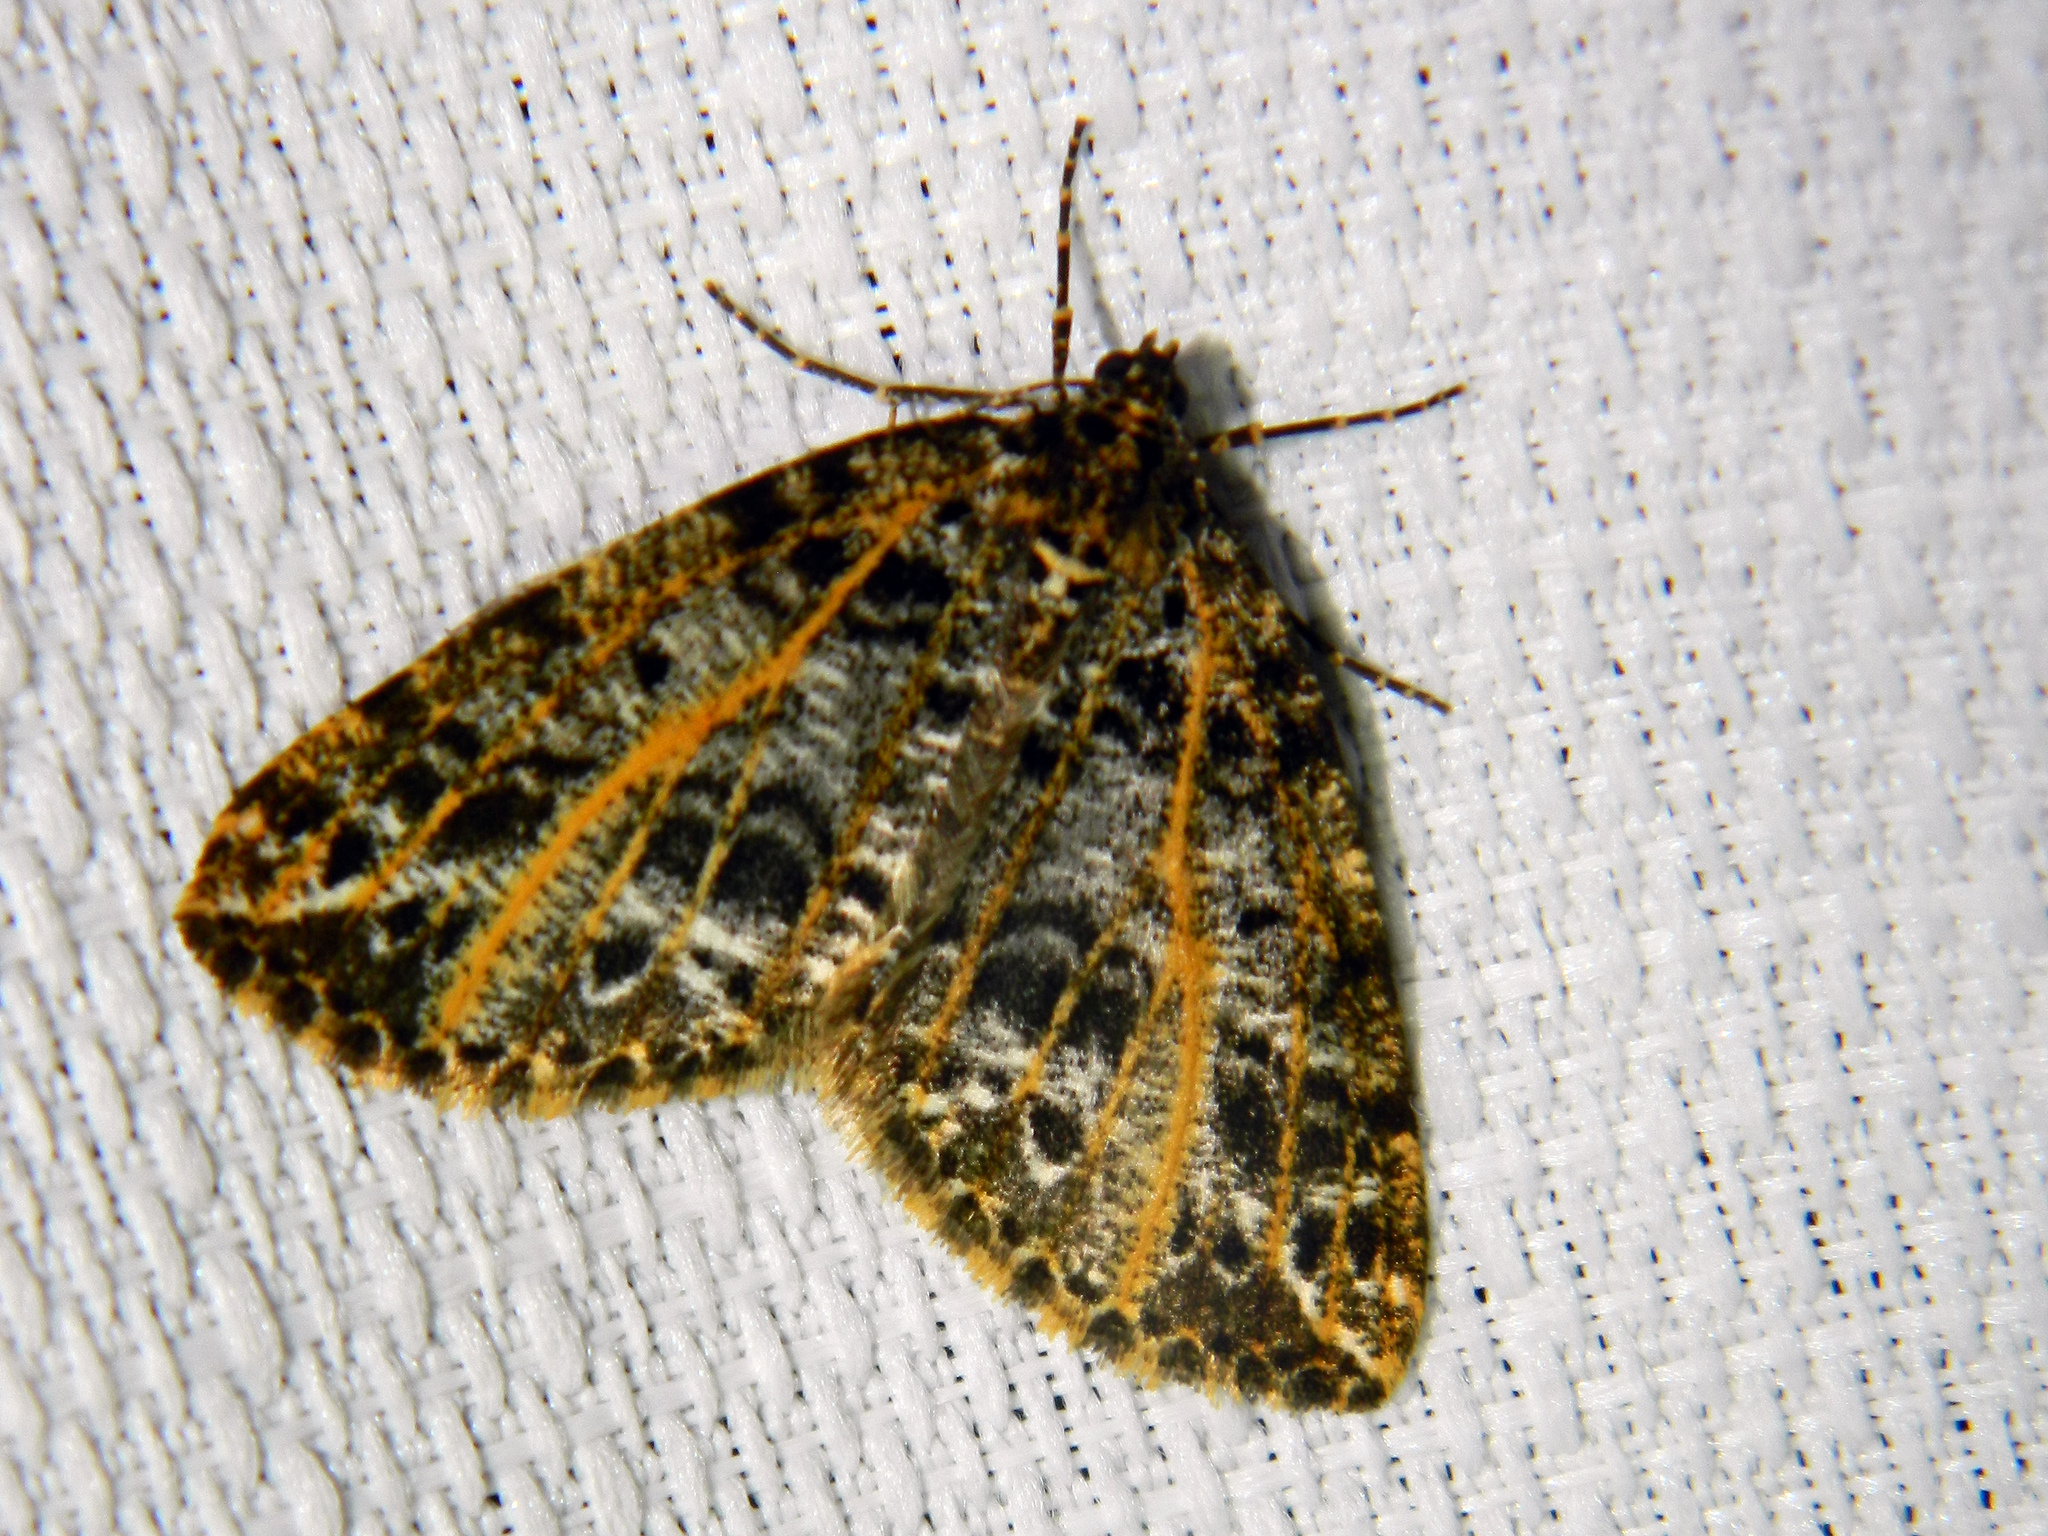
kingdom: Animalia
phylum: Arthropoda
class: Insecta
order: Lepidoptera
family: Geometridae
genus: Orthofidonia
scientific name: Orthofidonia flavivenata
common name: Yellow-veined geometer moth
